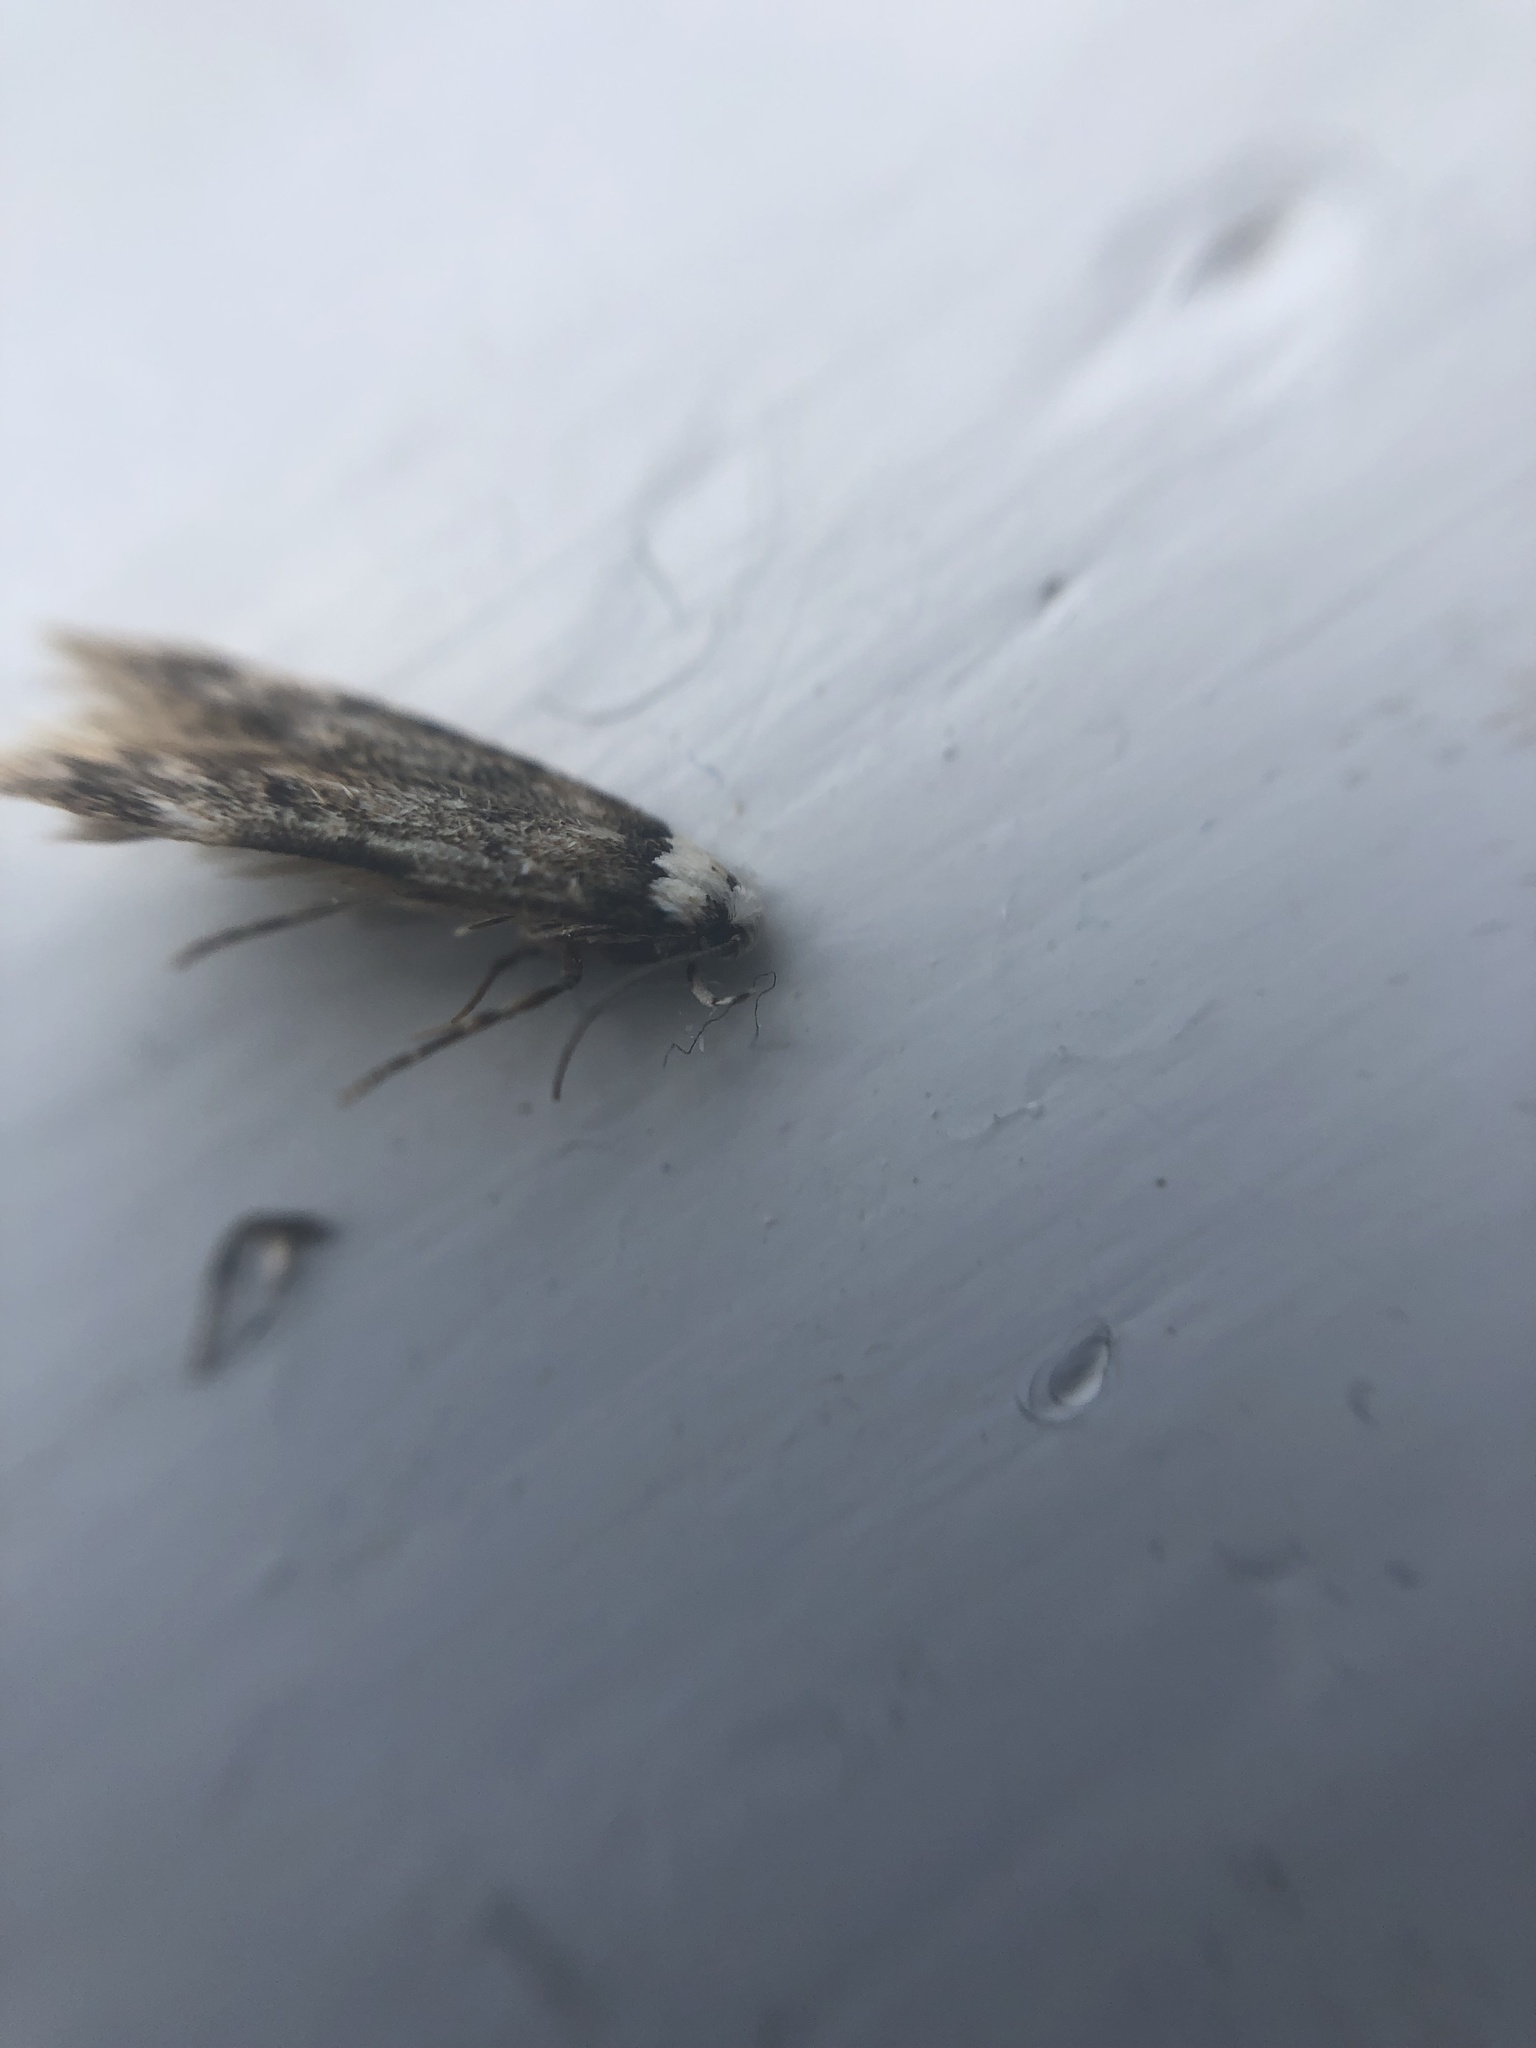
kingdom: Animalia
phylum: Arthropoda
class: Insecta
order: Lepidoptera
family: Oecophoridae
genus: Endrosis
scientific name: Endrosis sarcitrella
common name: White-shouldered house moth
